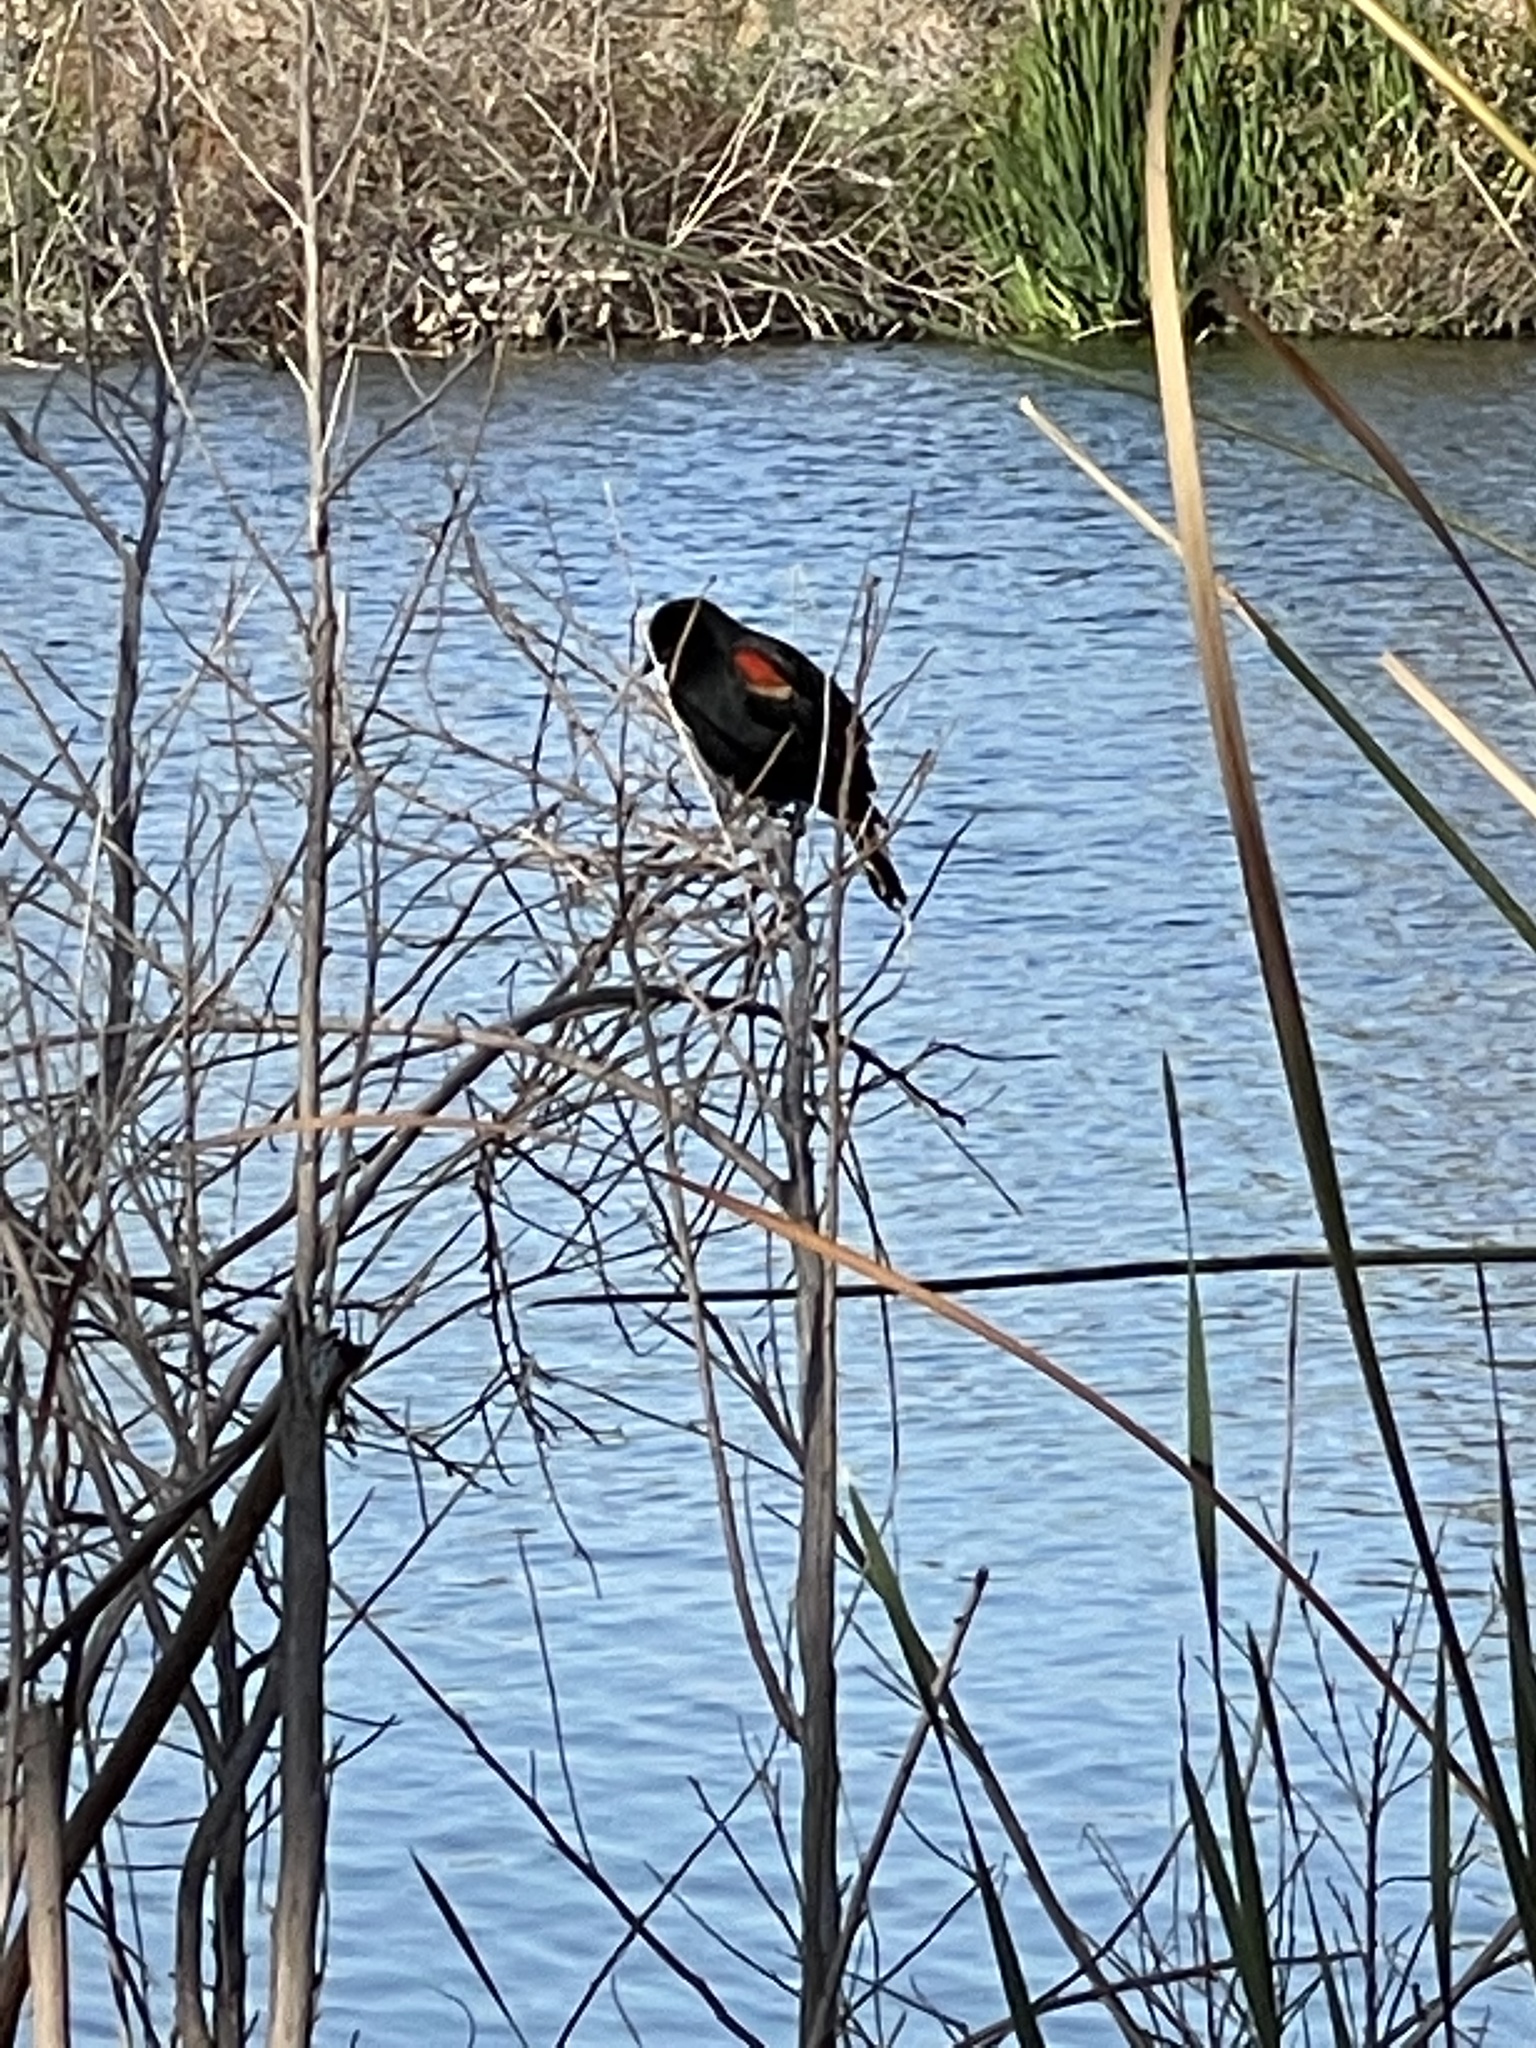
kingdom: Animalia
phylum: Chordata
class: Aves
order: Passeriformes
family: Icteridae
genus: Agelaius
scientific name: Agelaius phoeniceus
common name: Red-winged blackbird
